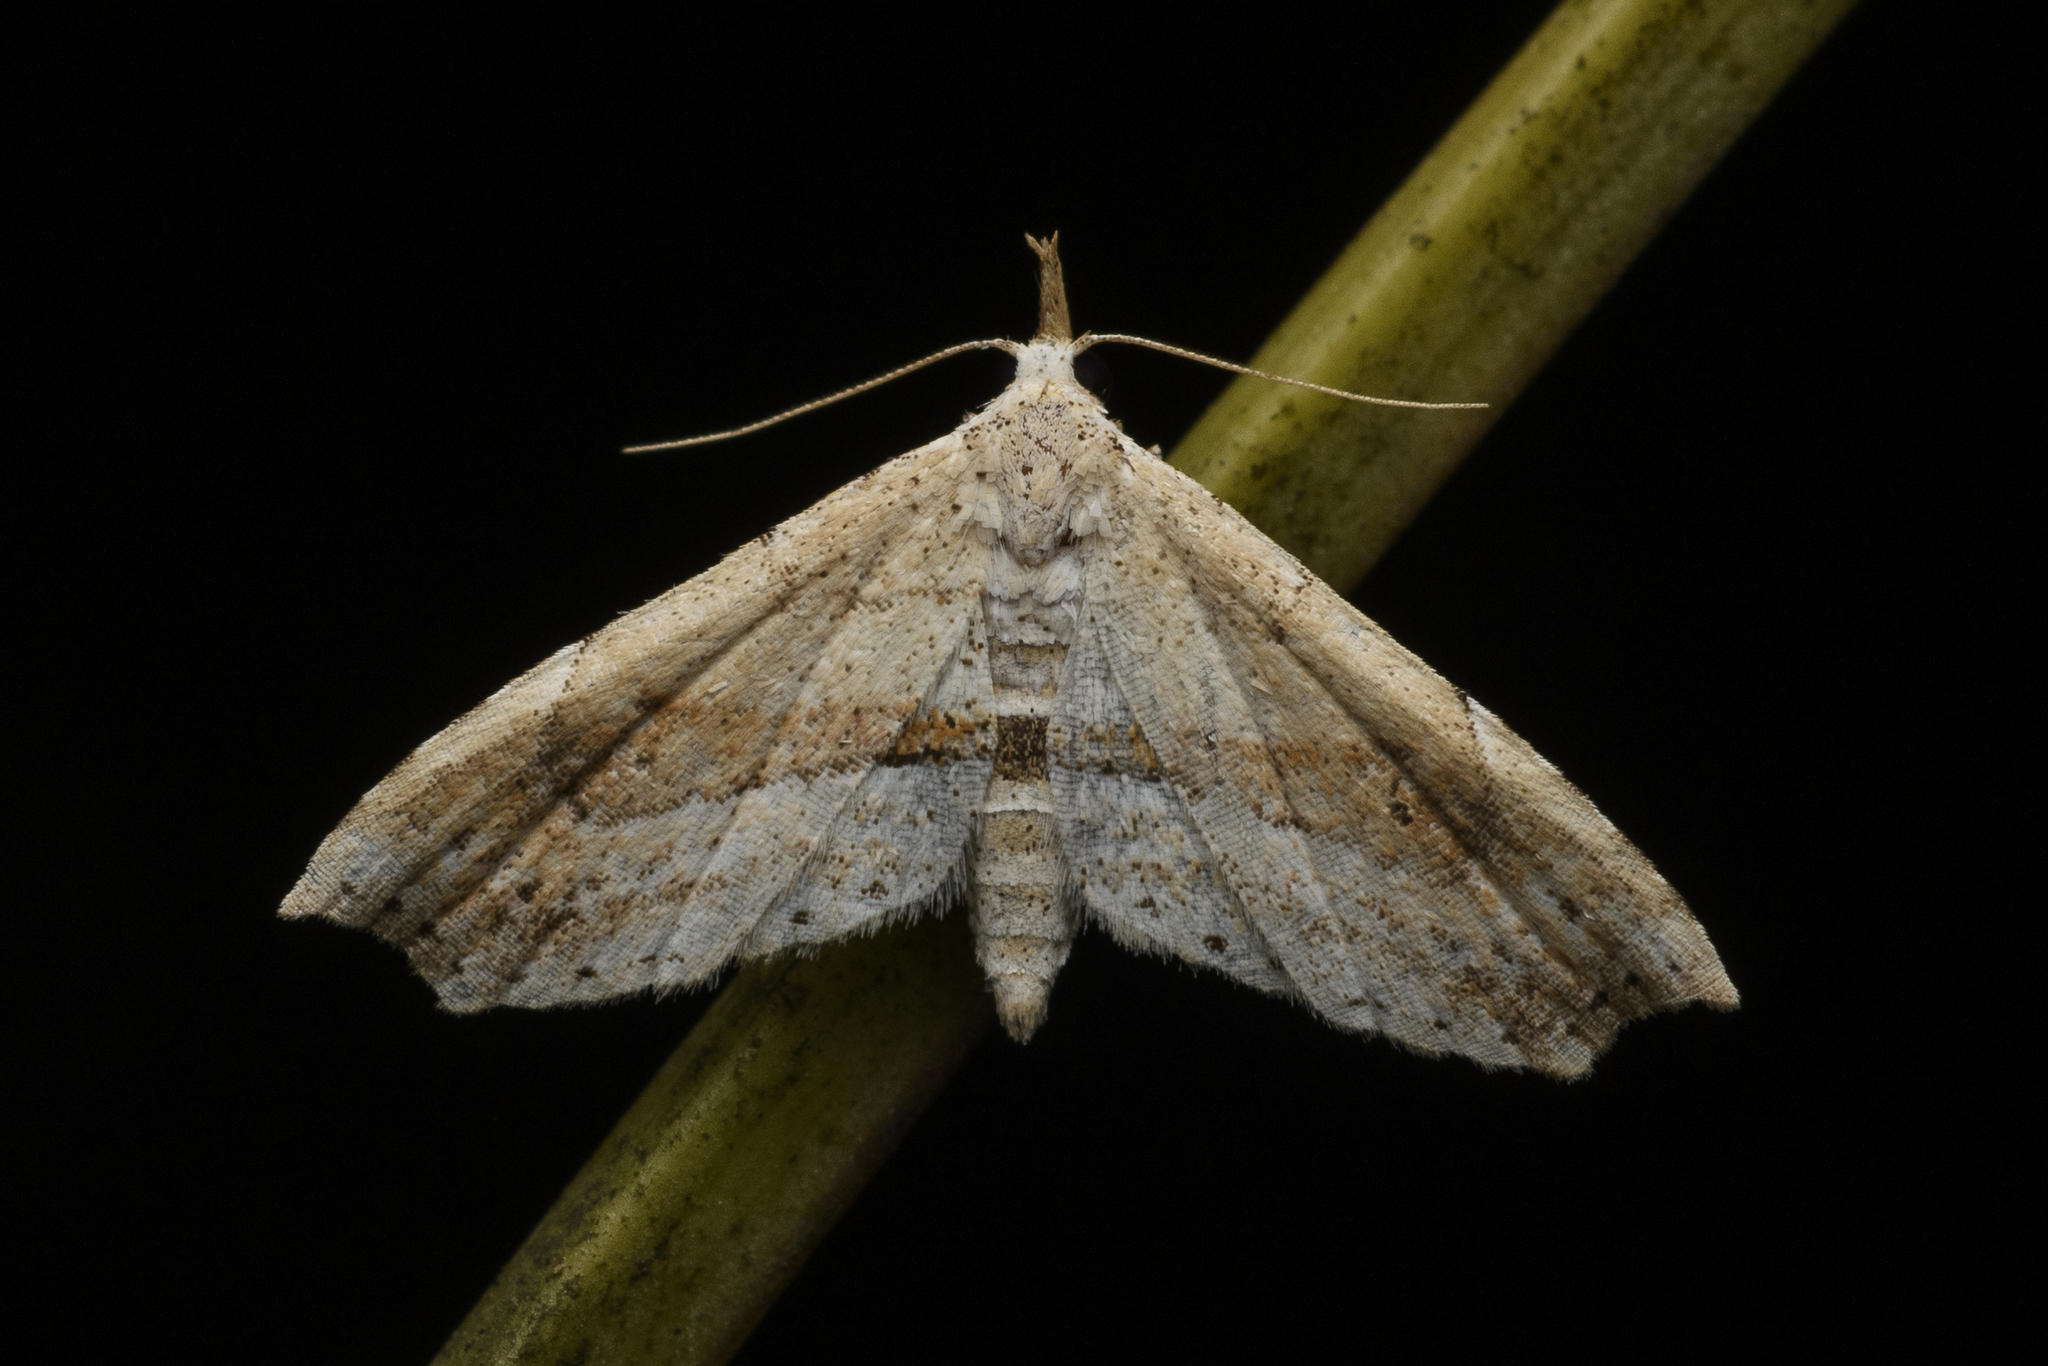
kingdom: Animalia
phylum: Arthropoda
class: Insecta
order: Lepidoptera
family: Erebidae
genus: Hypenagonia
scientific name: Hypenagonia angulata
